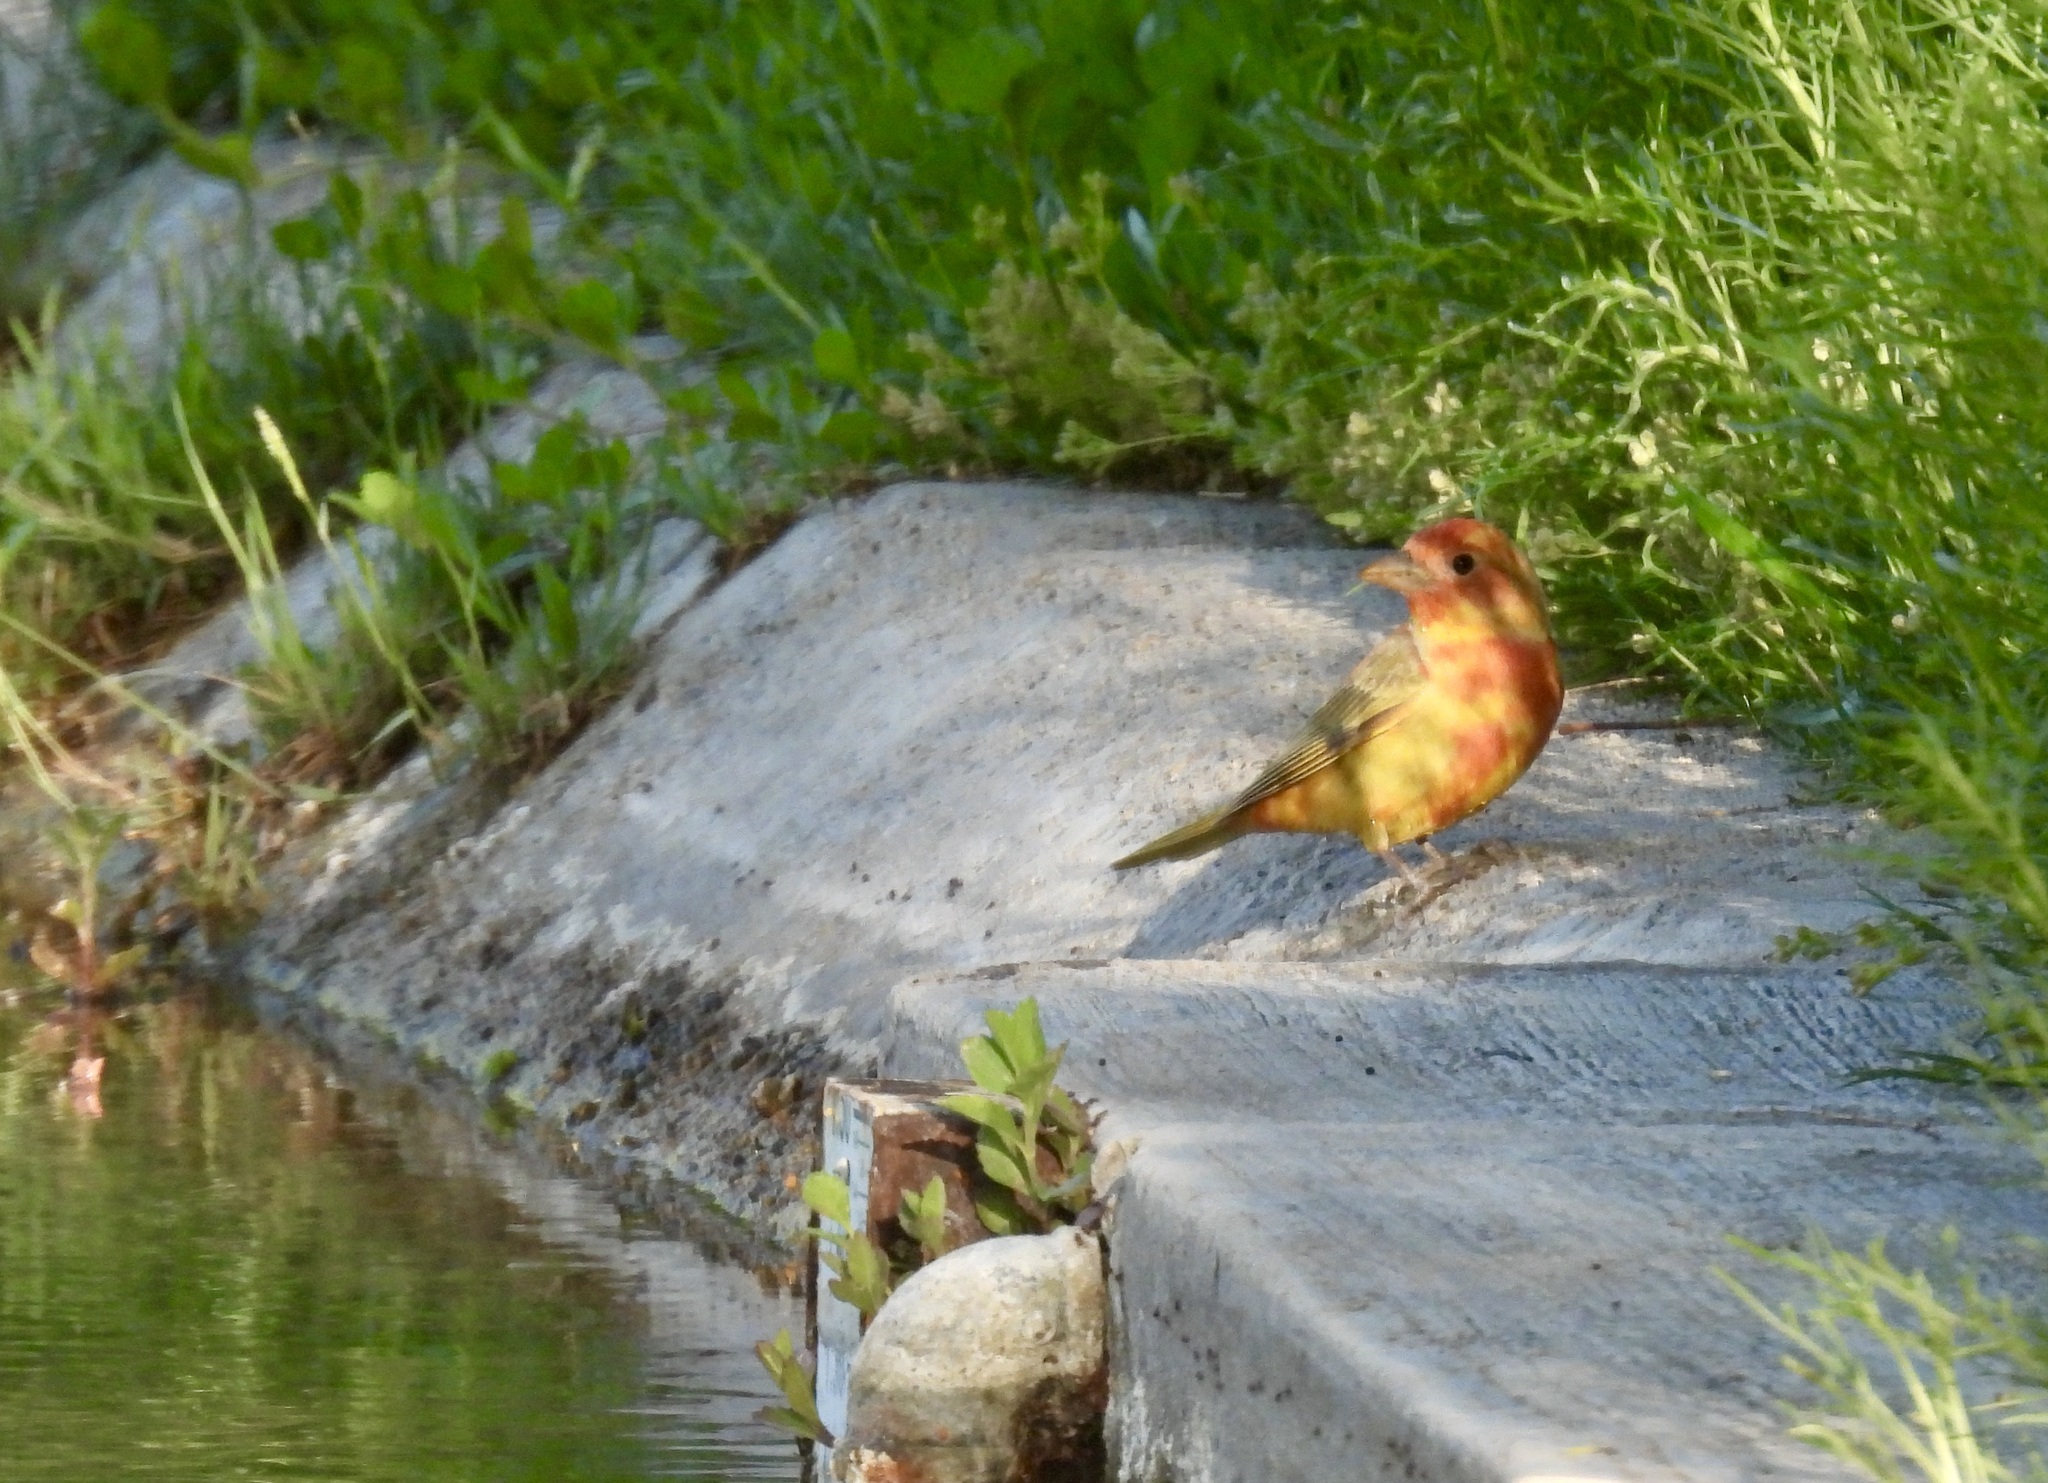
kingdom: Animalia
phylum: Chordata
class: Aves
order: Passeriformes
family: Cardinalidae
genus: Piranga
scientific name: Piranga rubra
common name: Summer tanager
